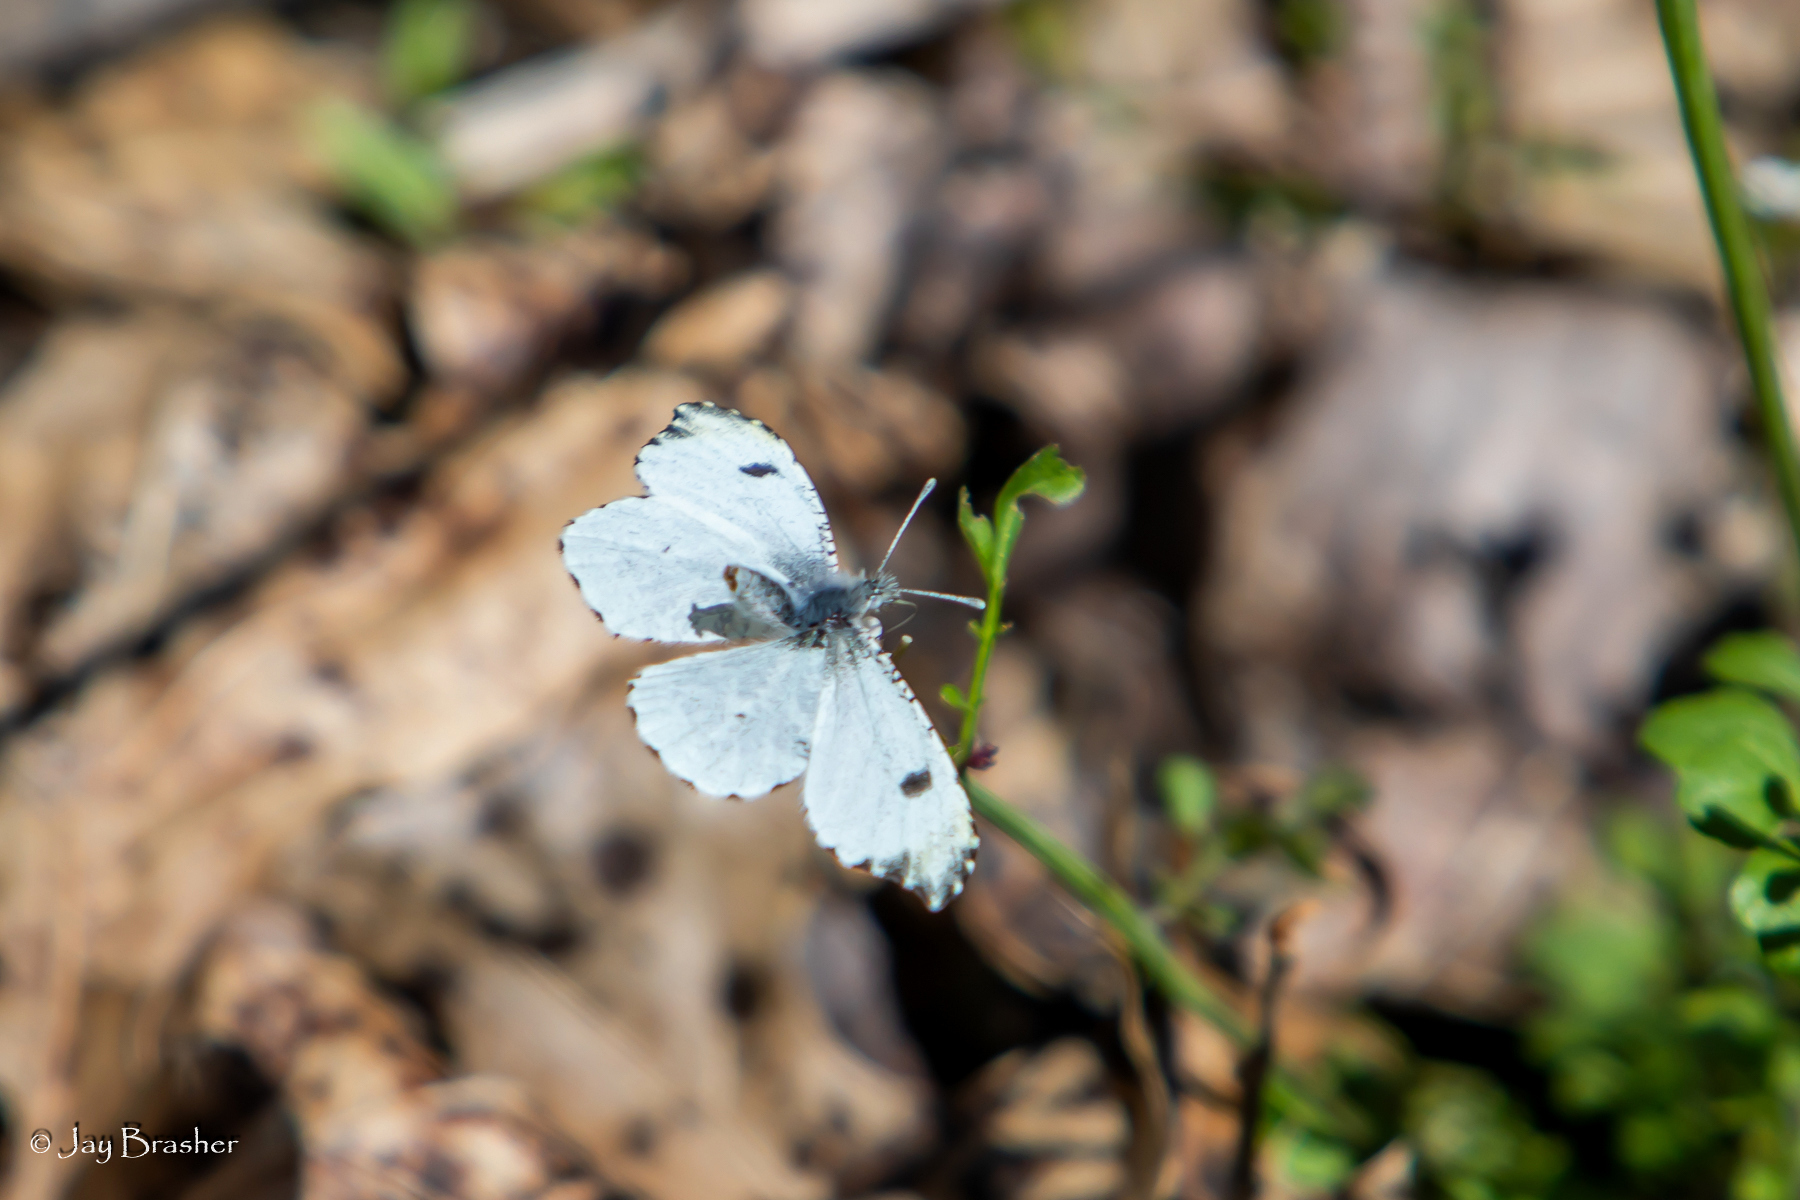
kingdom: Animalia
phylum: Arthropoda
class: Insecta
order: Lepidoptera
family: Pieridae
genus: Anthocharis
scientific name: Anthocharis midea
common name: Falcate orangetip
